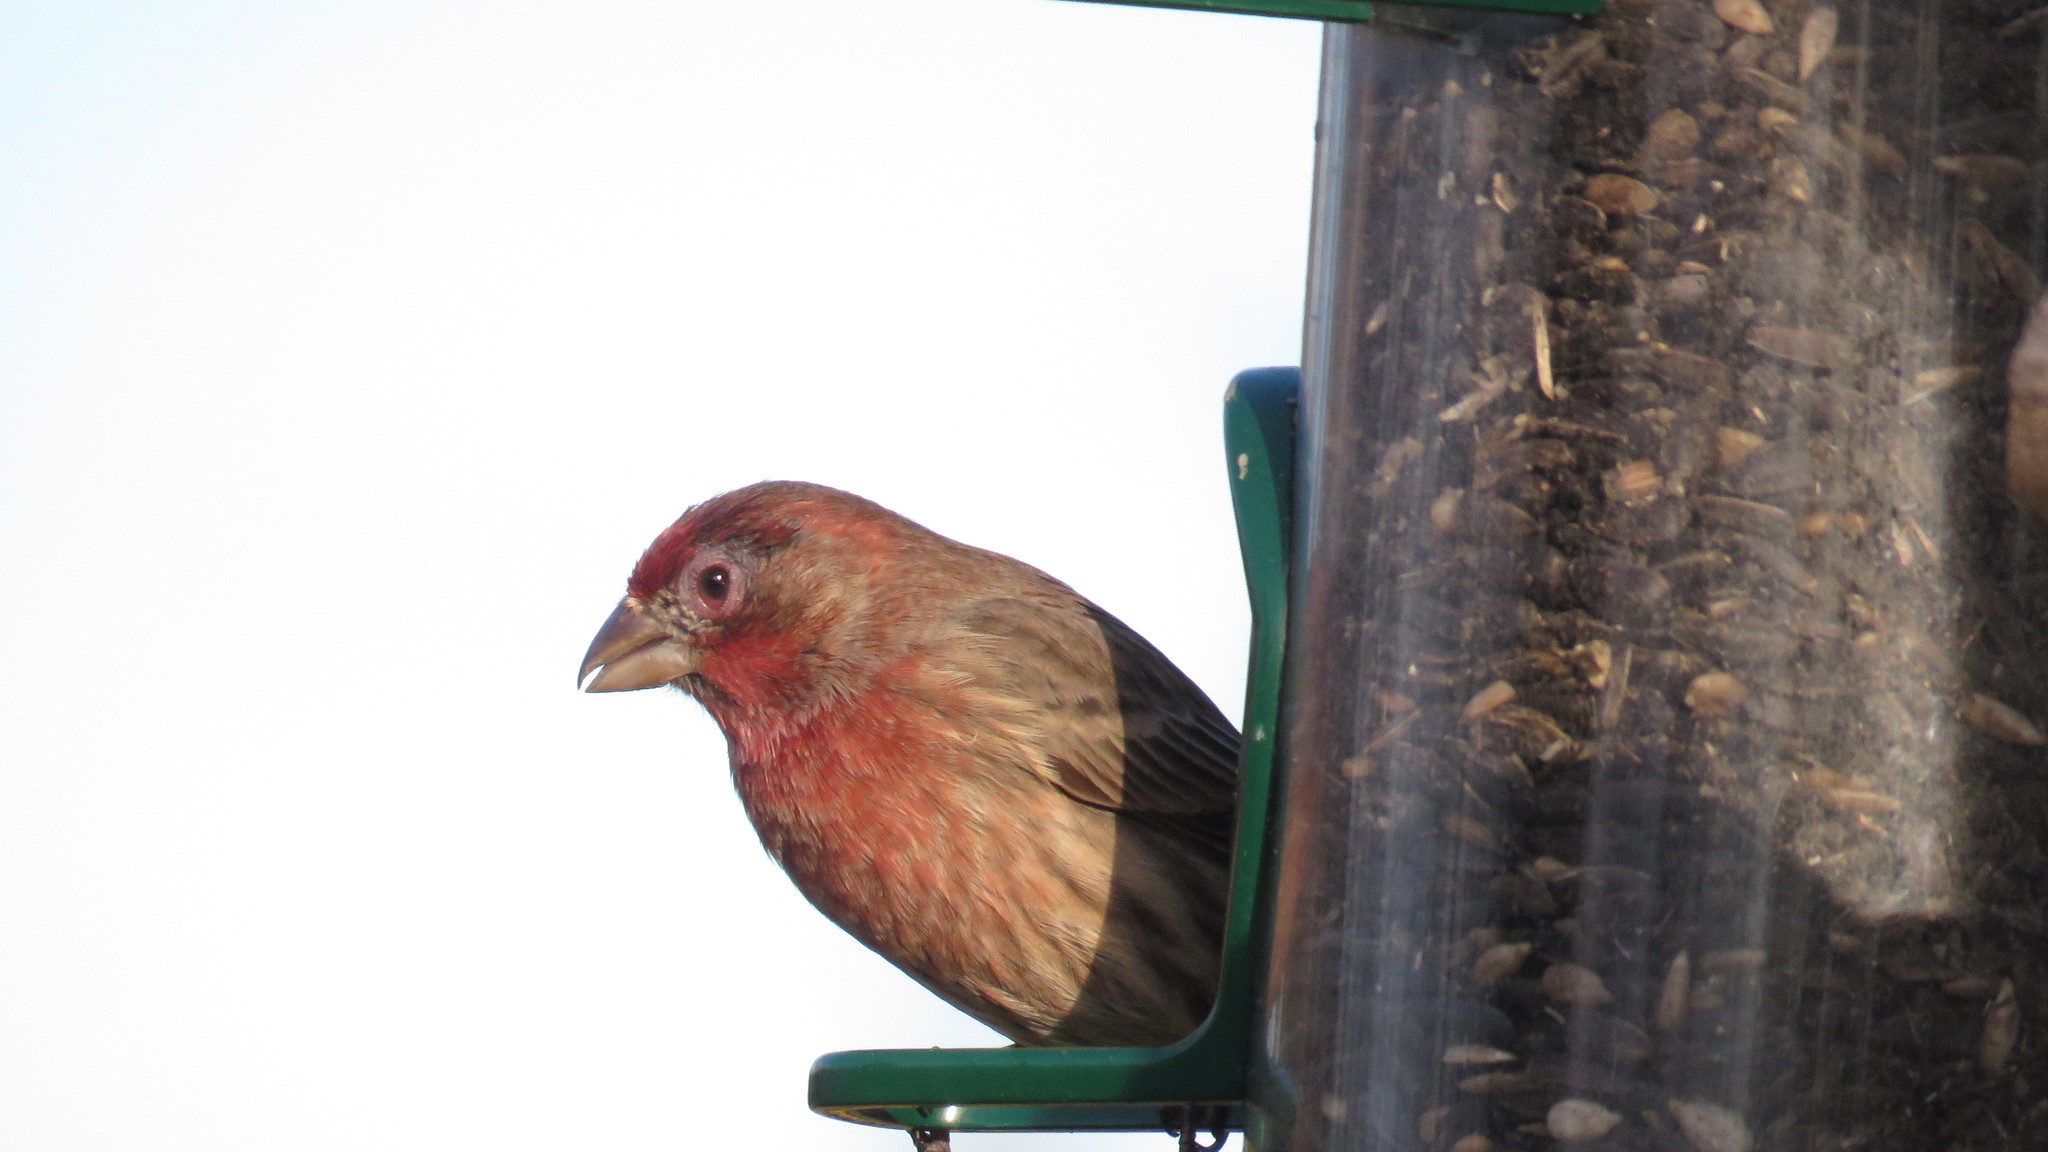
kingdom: Animalia
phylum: Chordata
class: Aves
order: Passeriformes
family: Fringillidae
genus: Haemorhous
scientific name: Haemorhous mexicanus
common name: House finch
